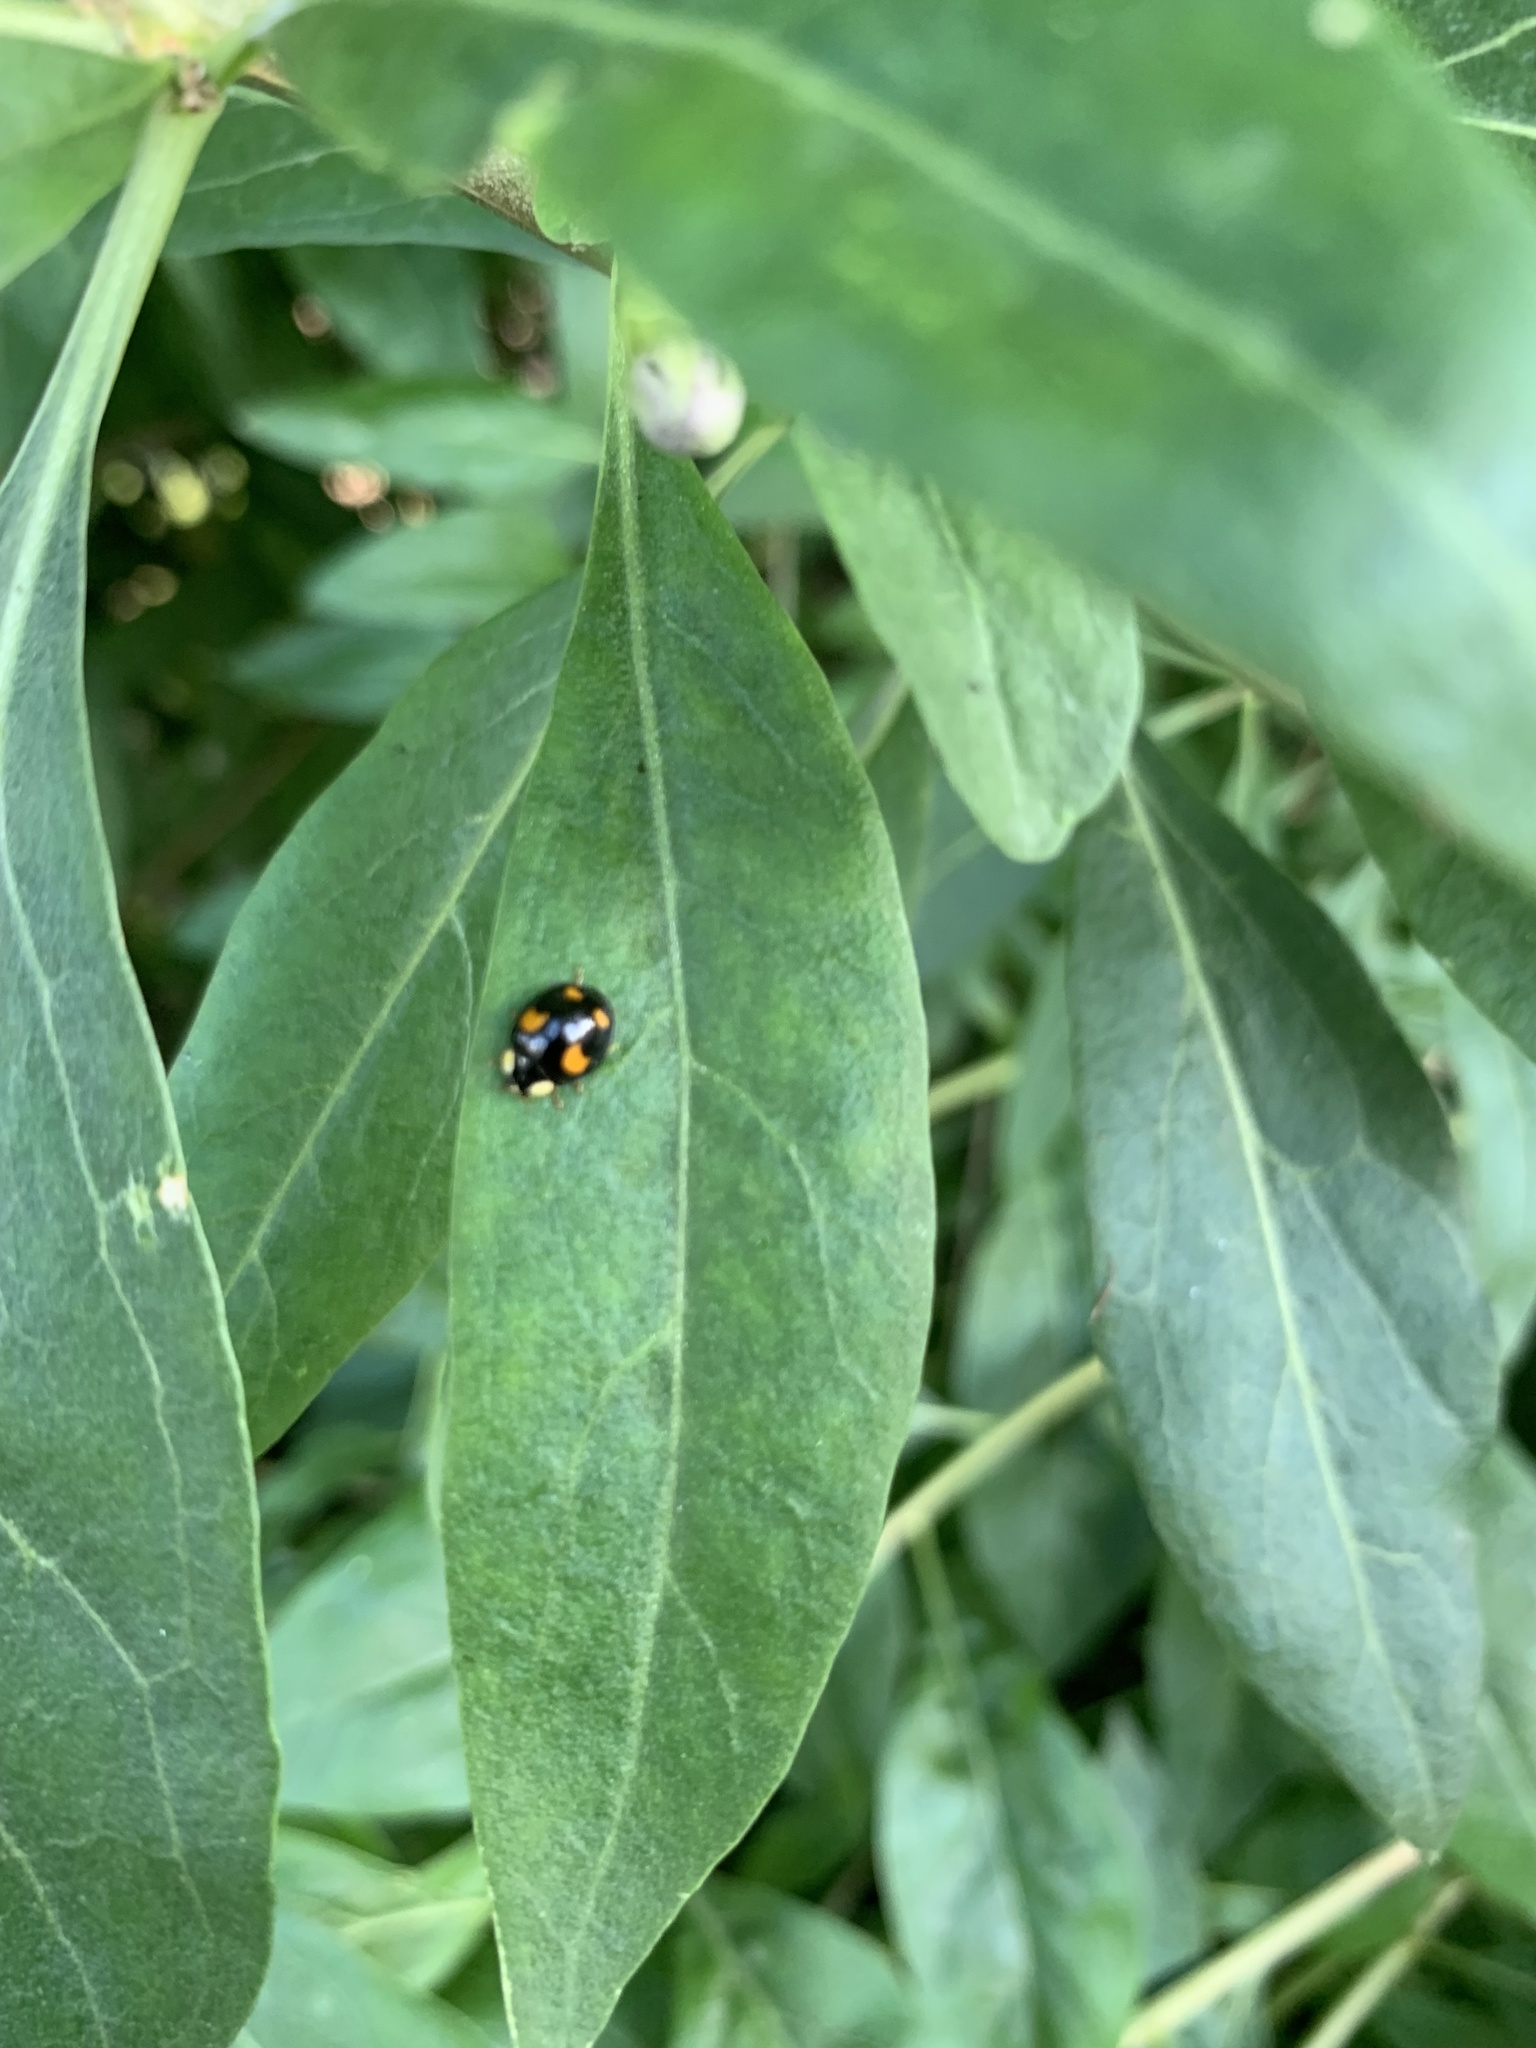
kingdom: Animalia
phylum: Arthropoda
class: Insecta
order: Coleoptera
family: Coccinellidae
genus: Harmonia
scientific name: Harmonia axyridis
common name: Harlequin ladybird
